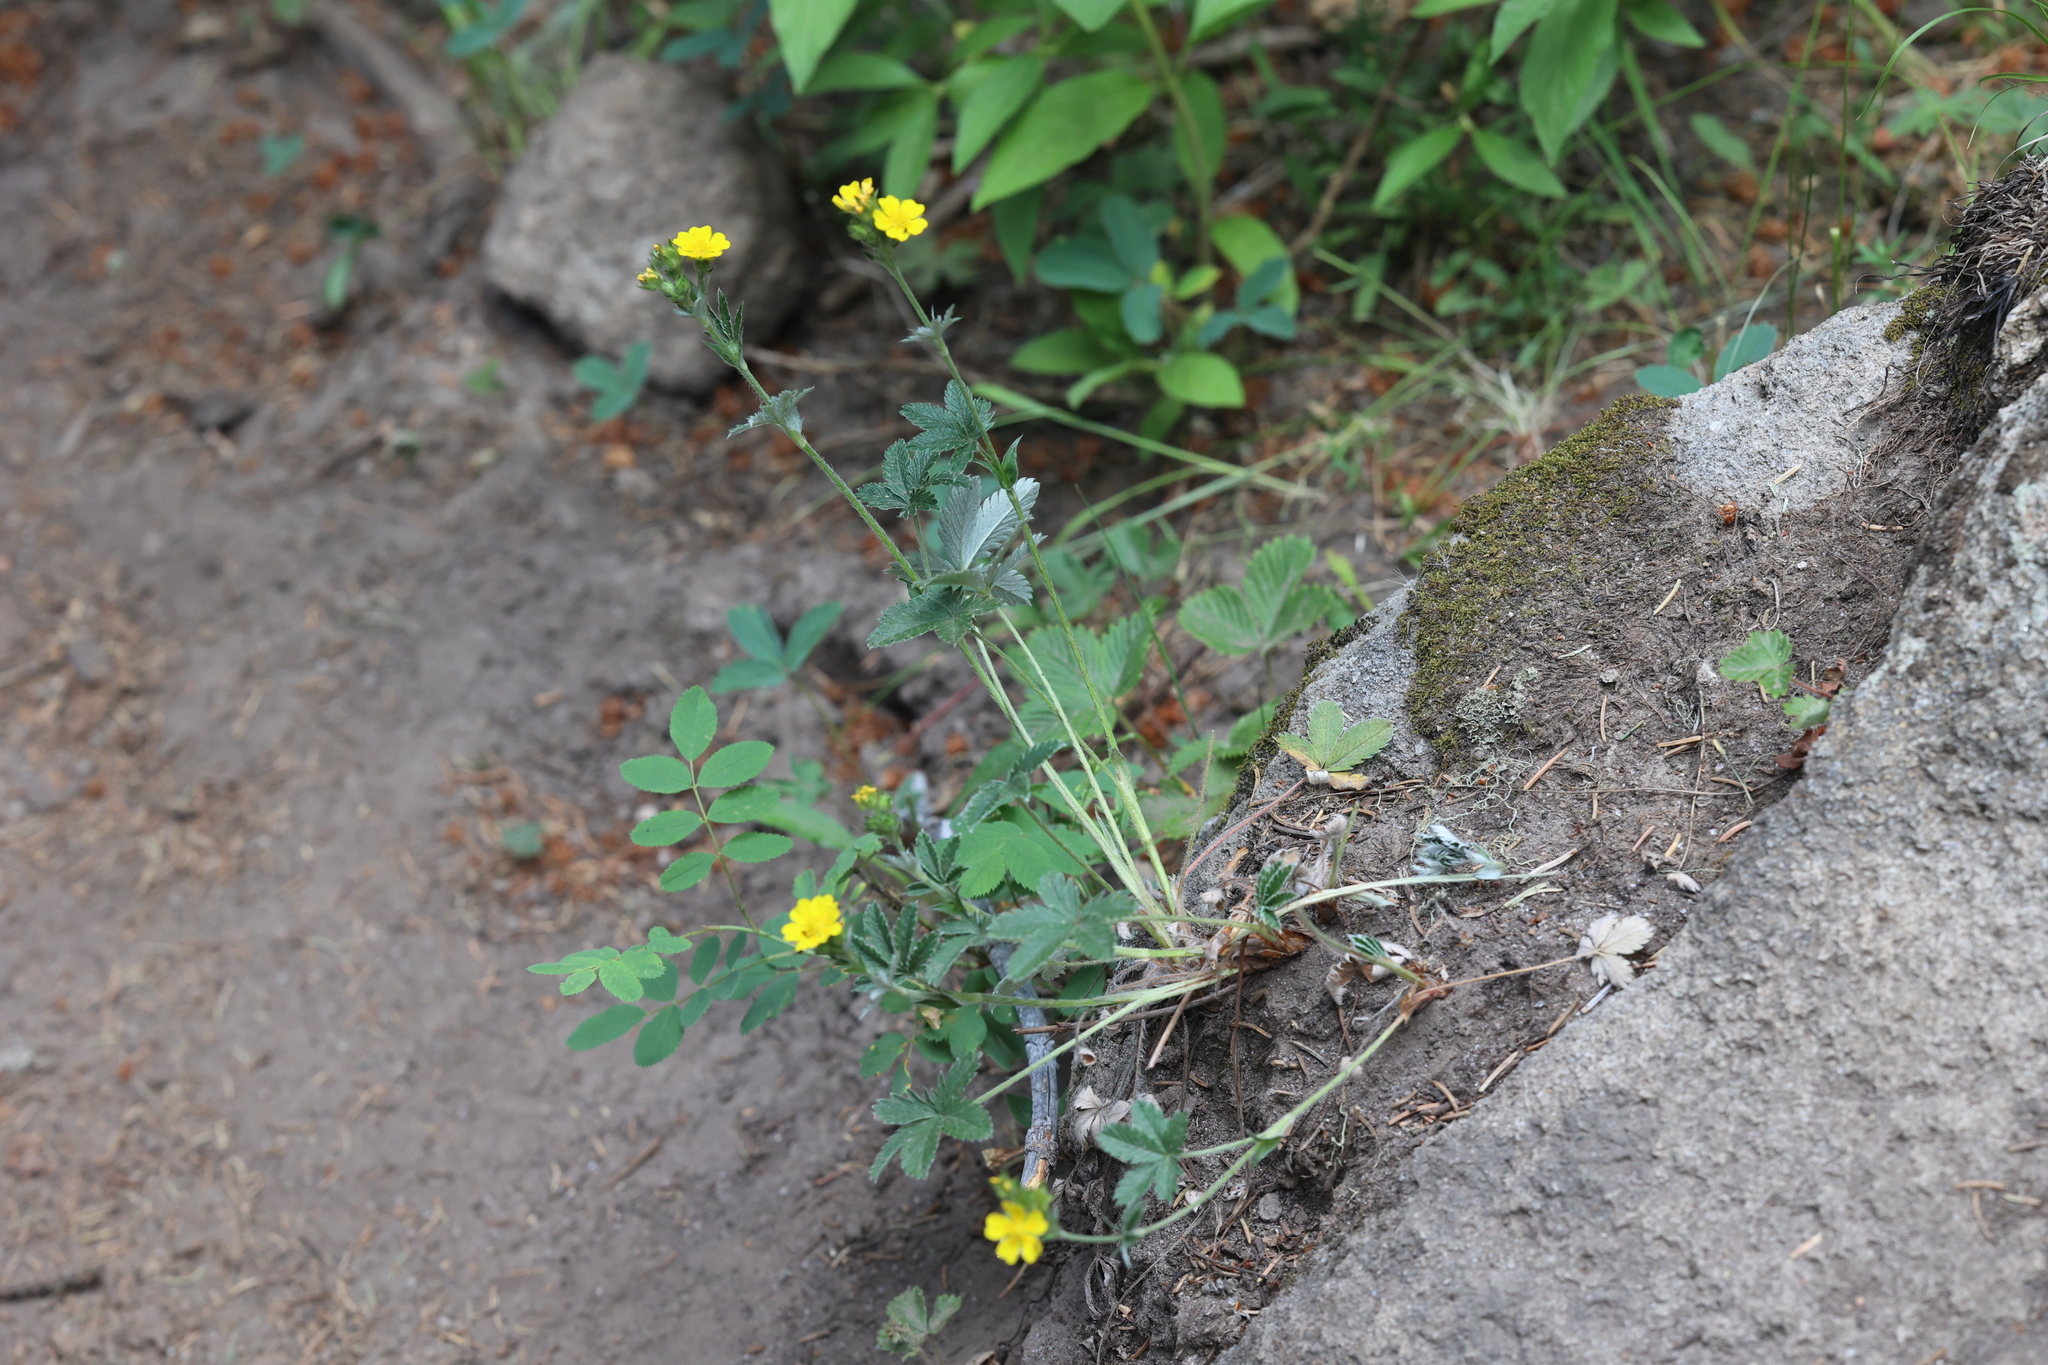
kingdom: Plantae
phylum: Tracheophyta
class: Magnoliopsida
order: Rosales
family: Rosaceae
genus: Potentilla
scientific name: Potentilla pulcherrima
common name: Beautiful cinquefoil
